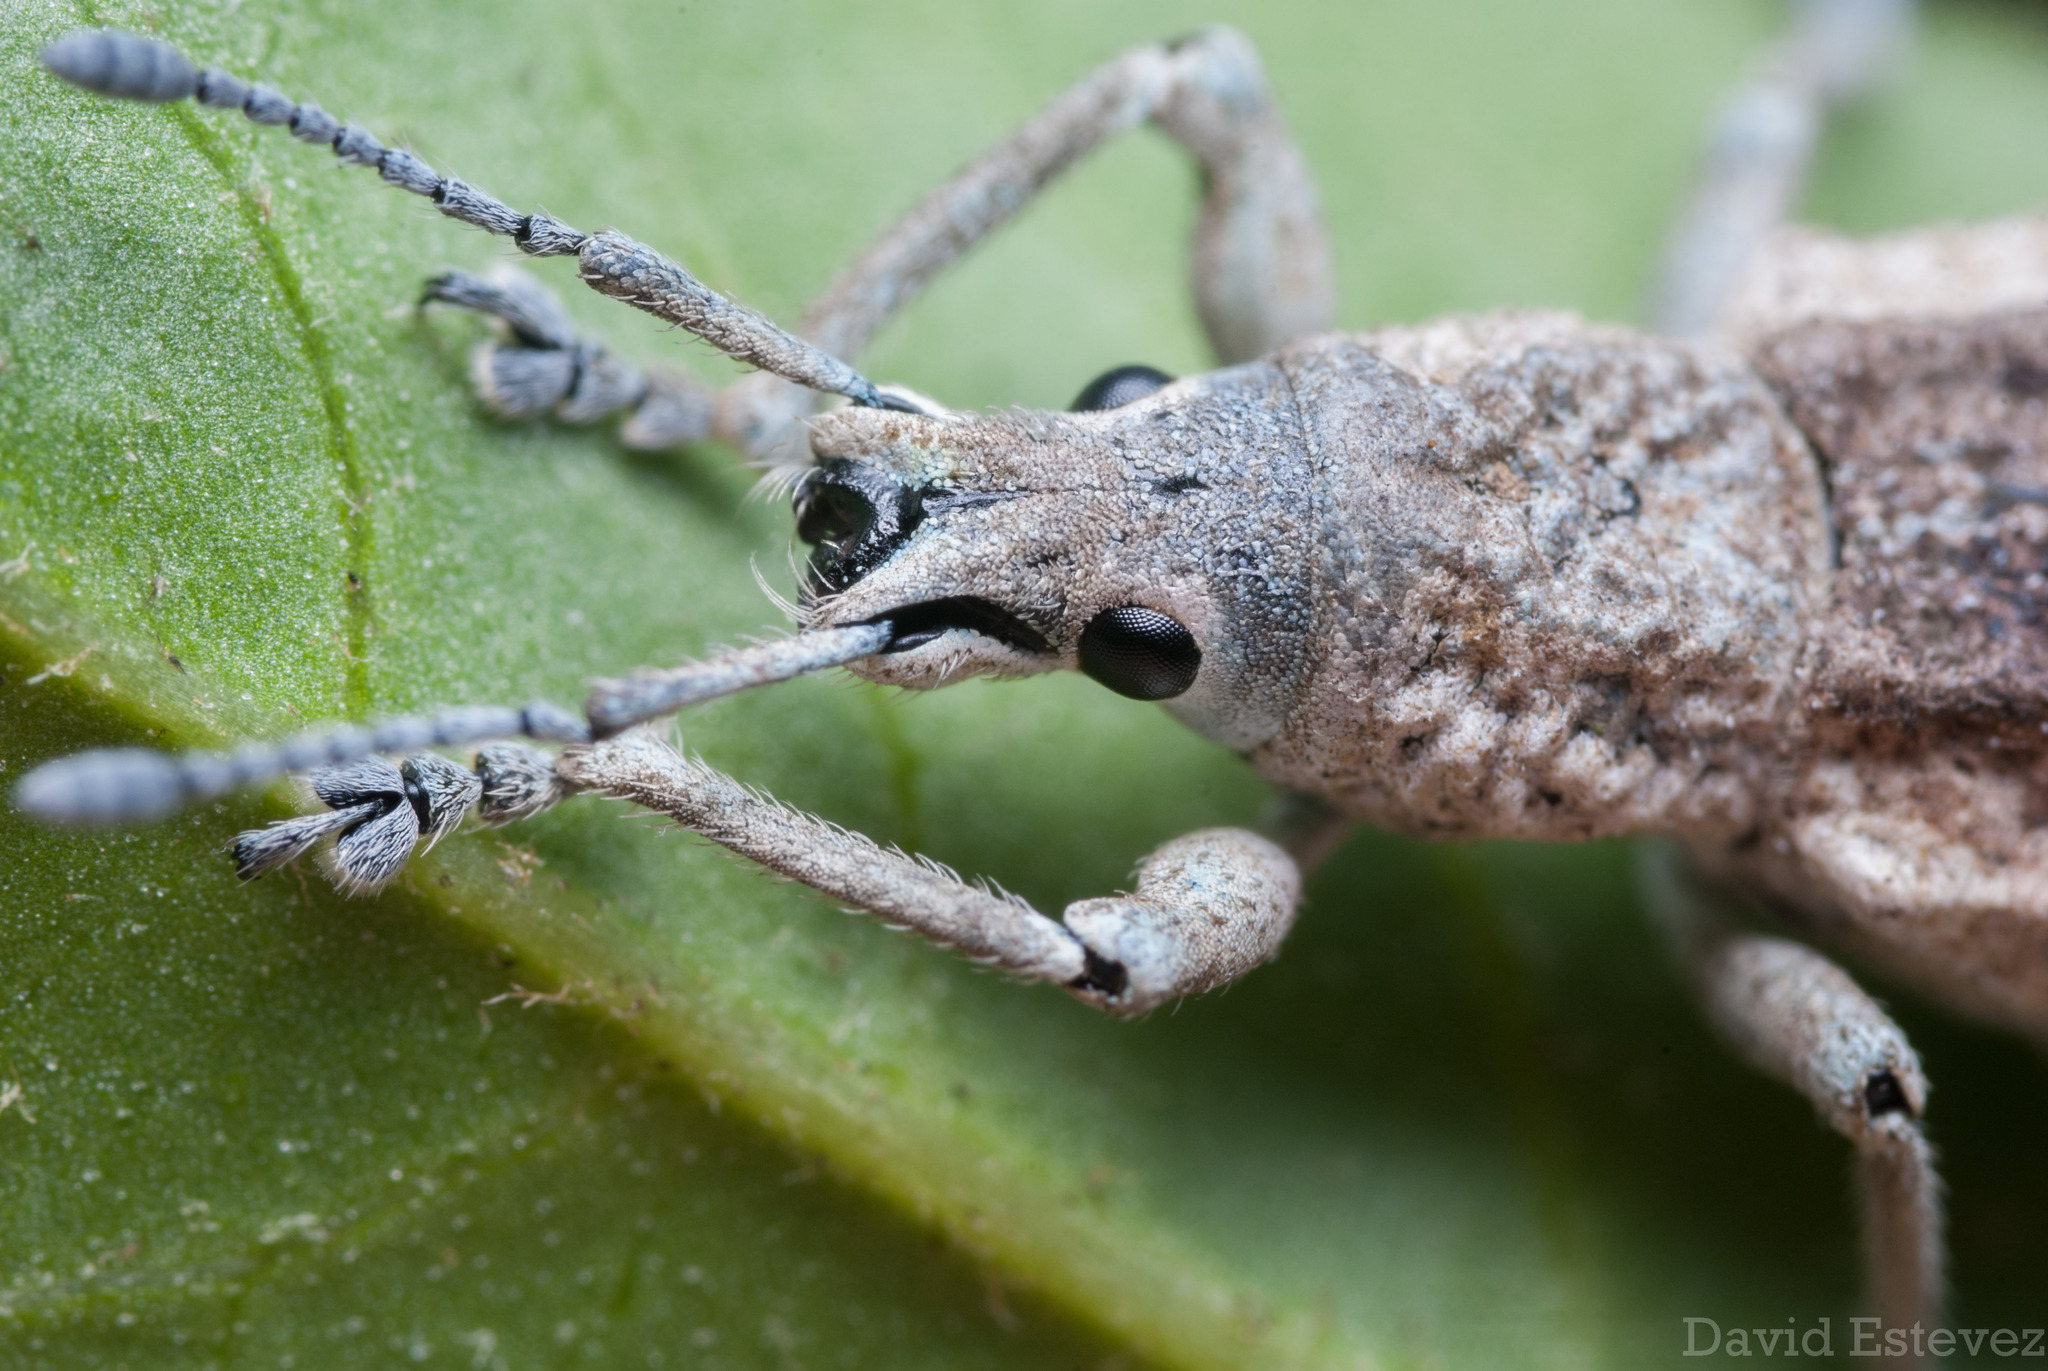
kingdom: Animalia
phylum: Arthropoda
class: Insecta
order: Coleoptera
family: Curculionidae
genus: Compsus
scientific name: Compsus canescens
